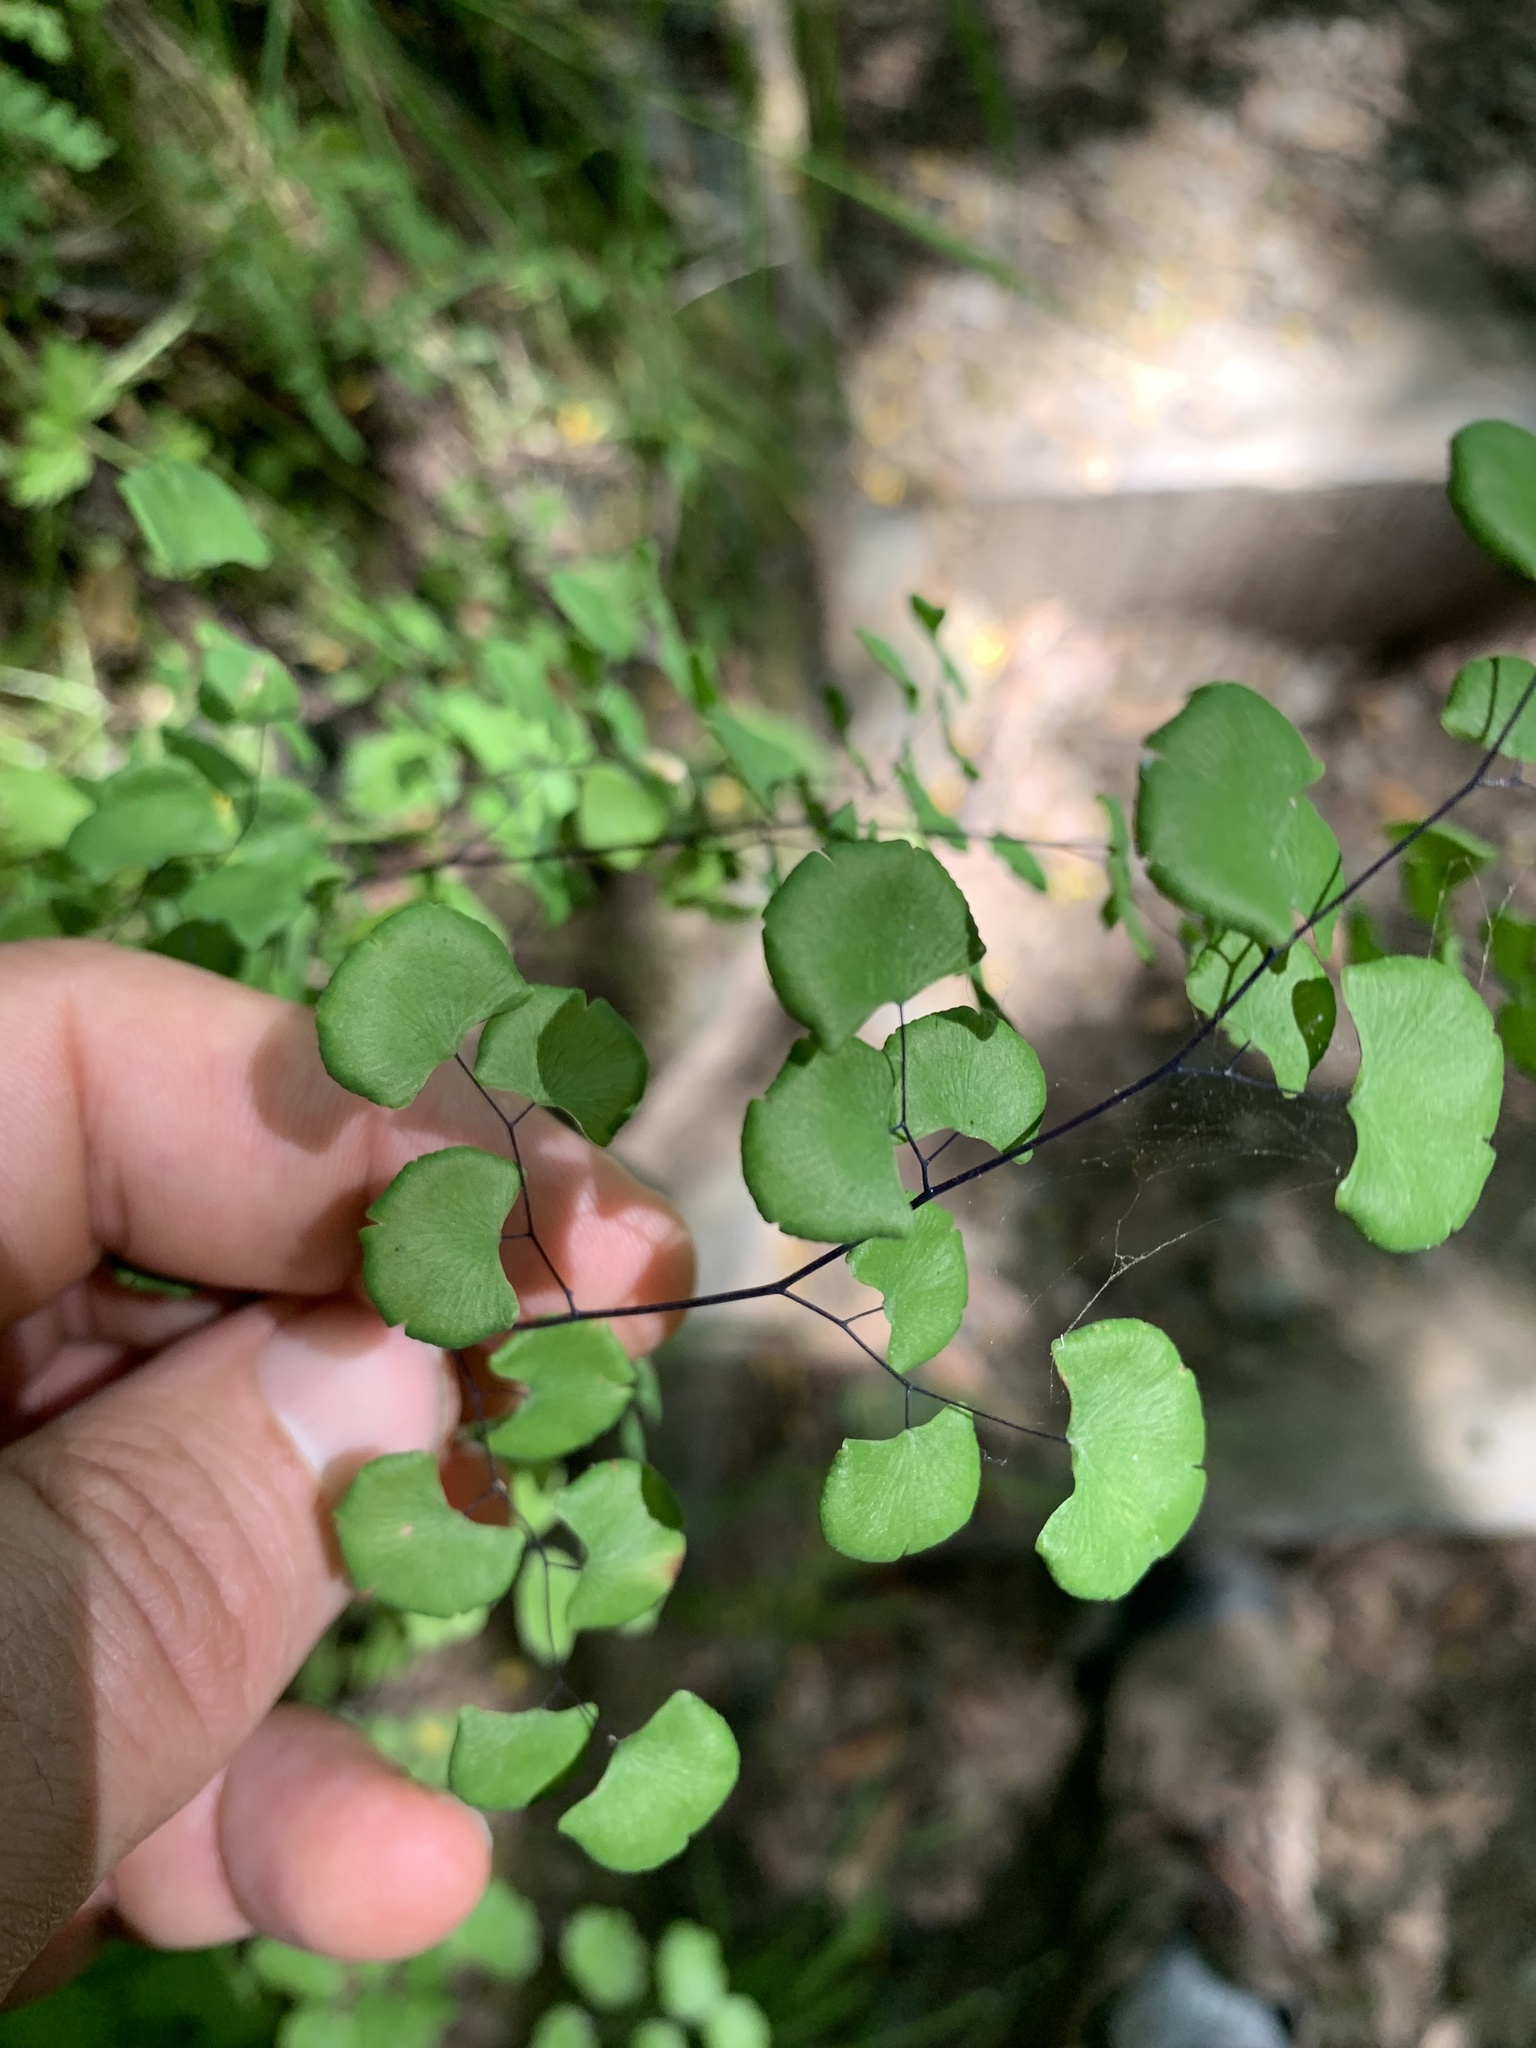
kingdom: Plantae
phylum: Tracheophyta
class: Polypodiopsida
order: Polypodiales
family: Pteridaceae
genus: Adiantum
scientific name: Adiantum jordanii
